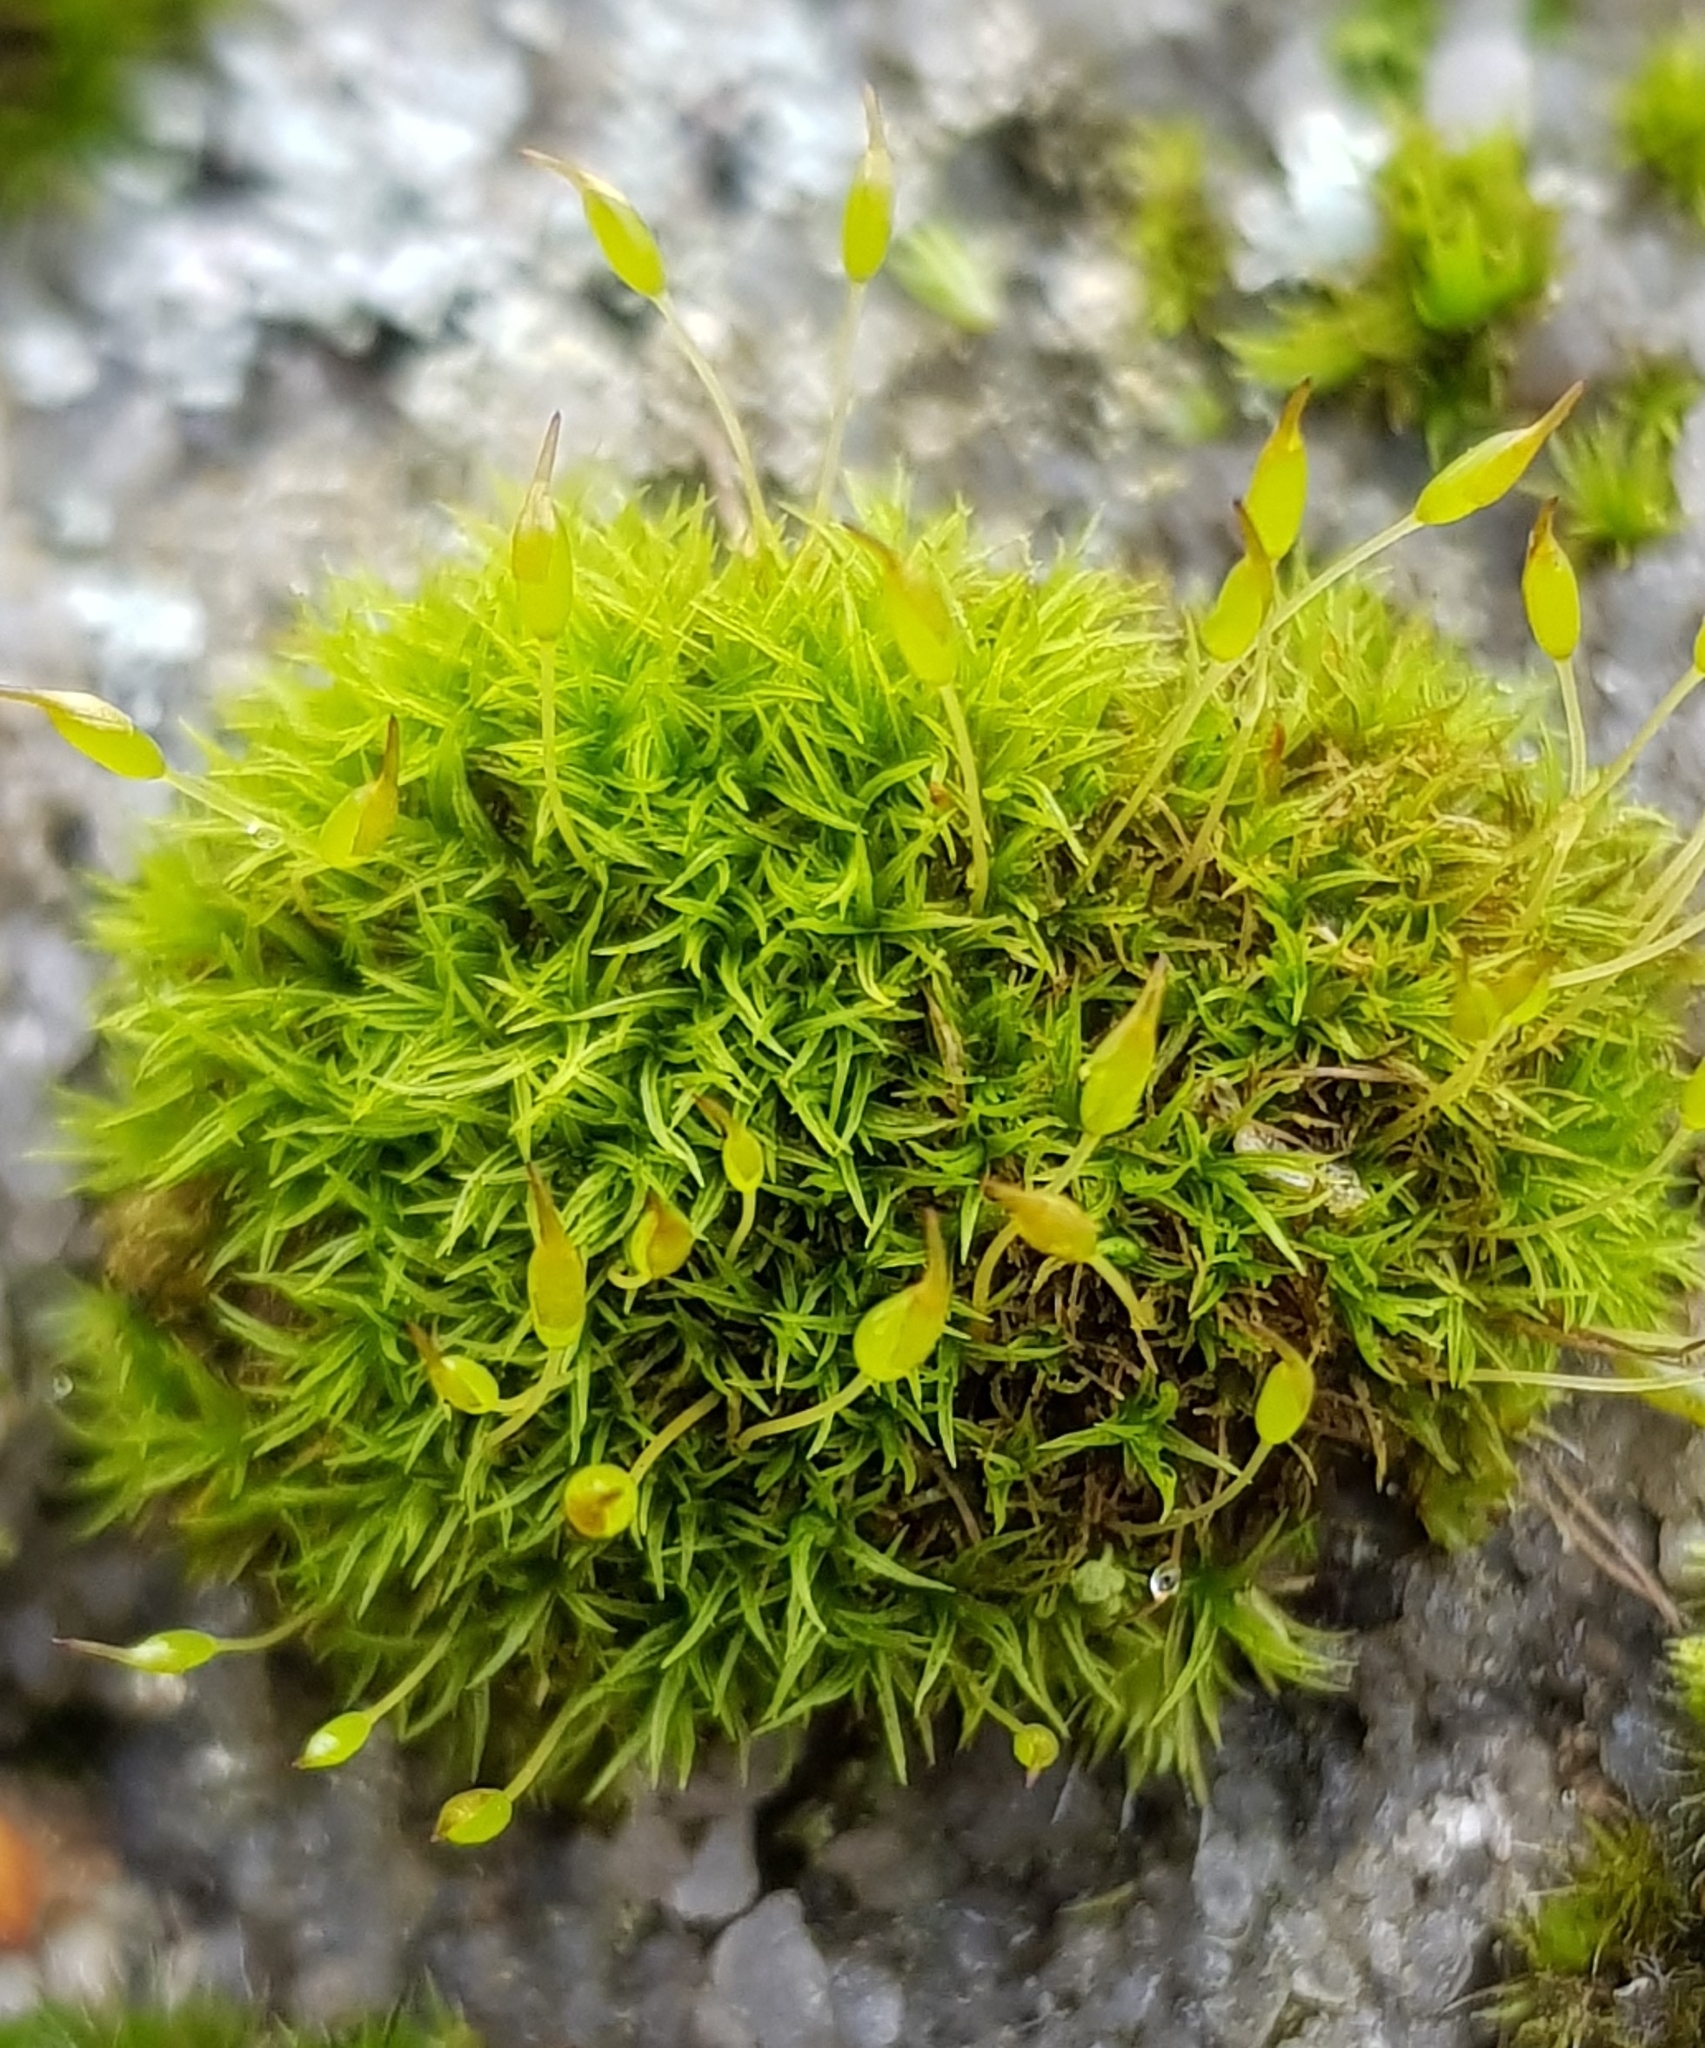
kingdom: Plantae
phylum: Bryophyta
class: Bryopsida
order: Dicranales
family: Rhabdoweisiaceae
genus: Dicranoweisia
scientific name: Dicranoweisia cirrata
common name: Common pincushion
